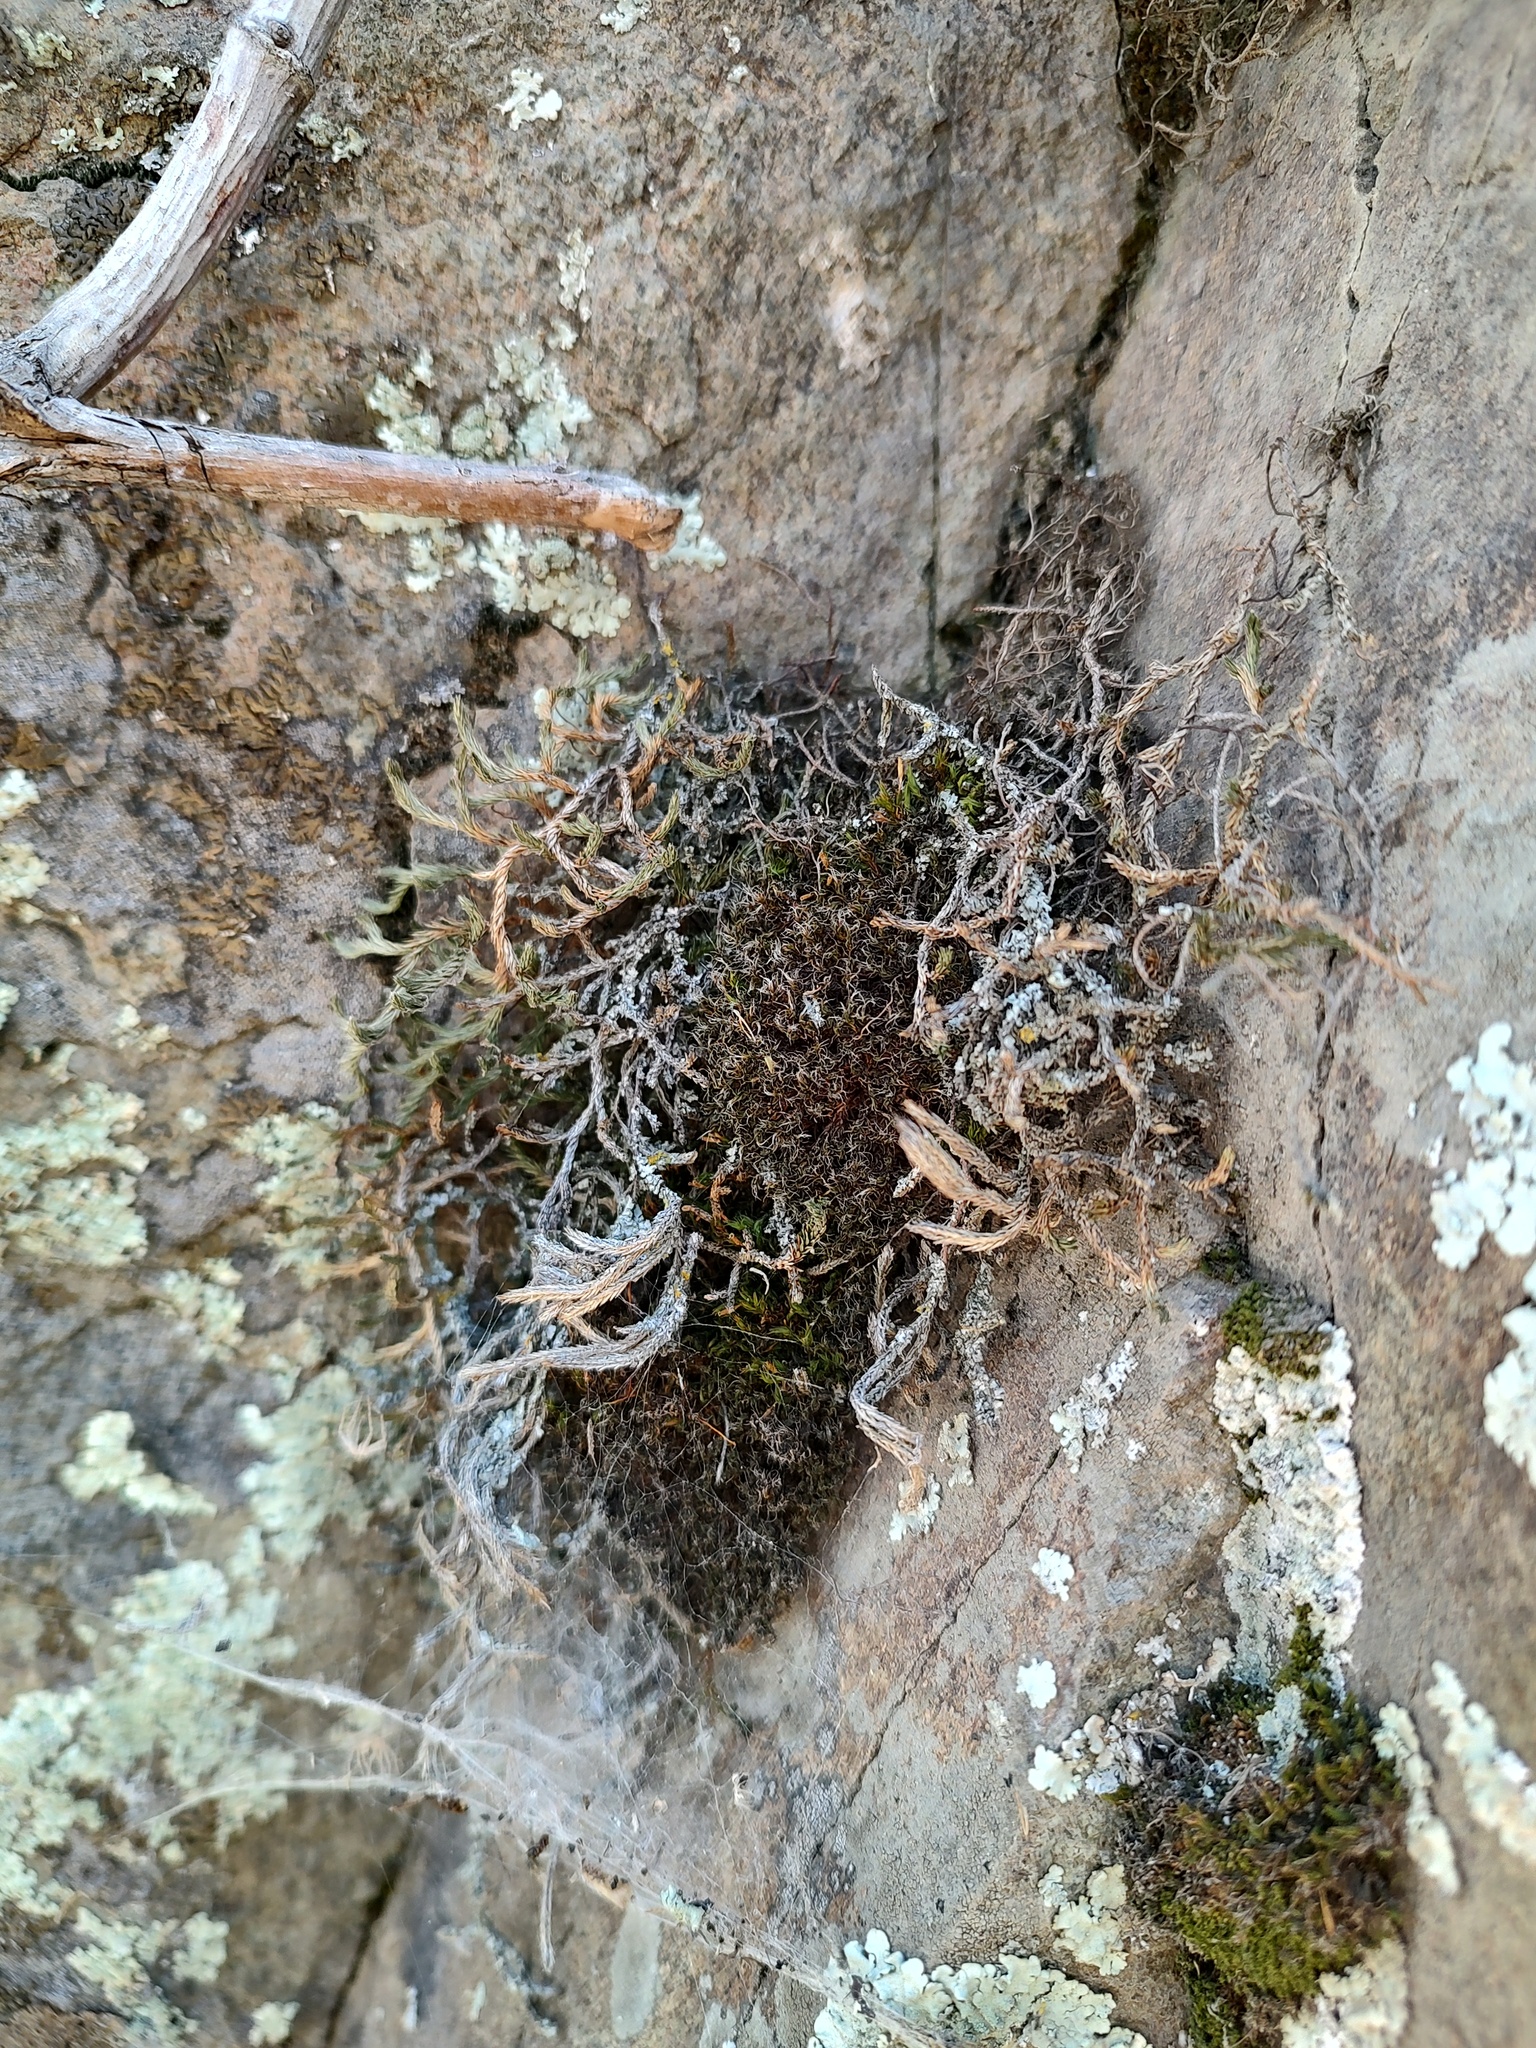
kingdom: Plantae
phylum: Tracheophyta
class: Lycopodiopsida
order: Selaginellales
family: Selaginellaceae
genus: Selaginella
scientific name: Selaginella wallacei
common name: Wallace's selaginella
